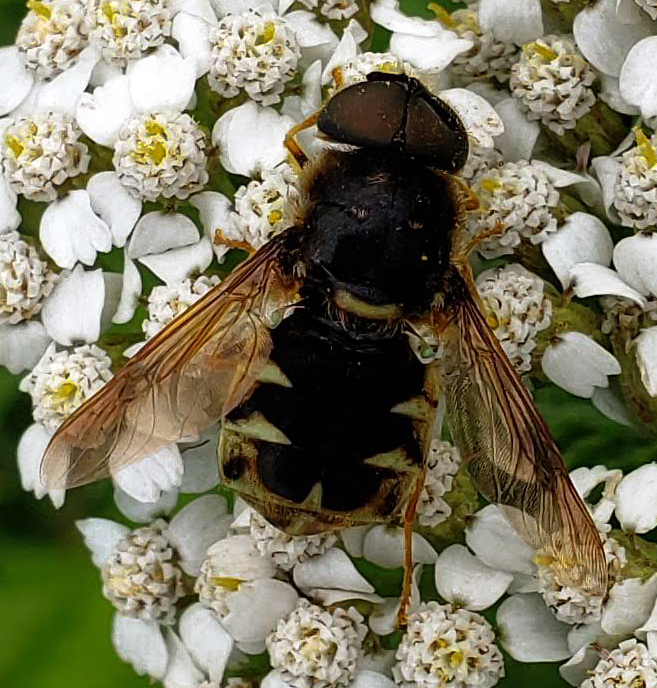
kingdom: Animalia
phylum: Arthropoda
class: Insecta
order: Diptera
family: Stratiomyidae
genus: Stratiomys
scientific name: Stratiomys badia
